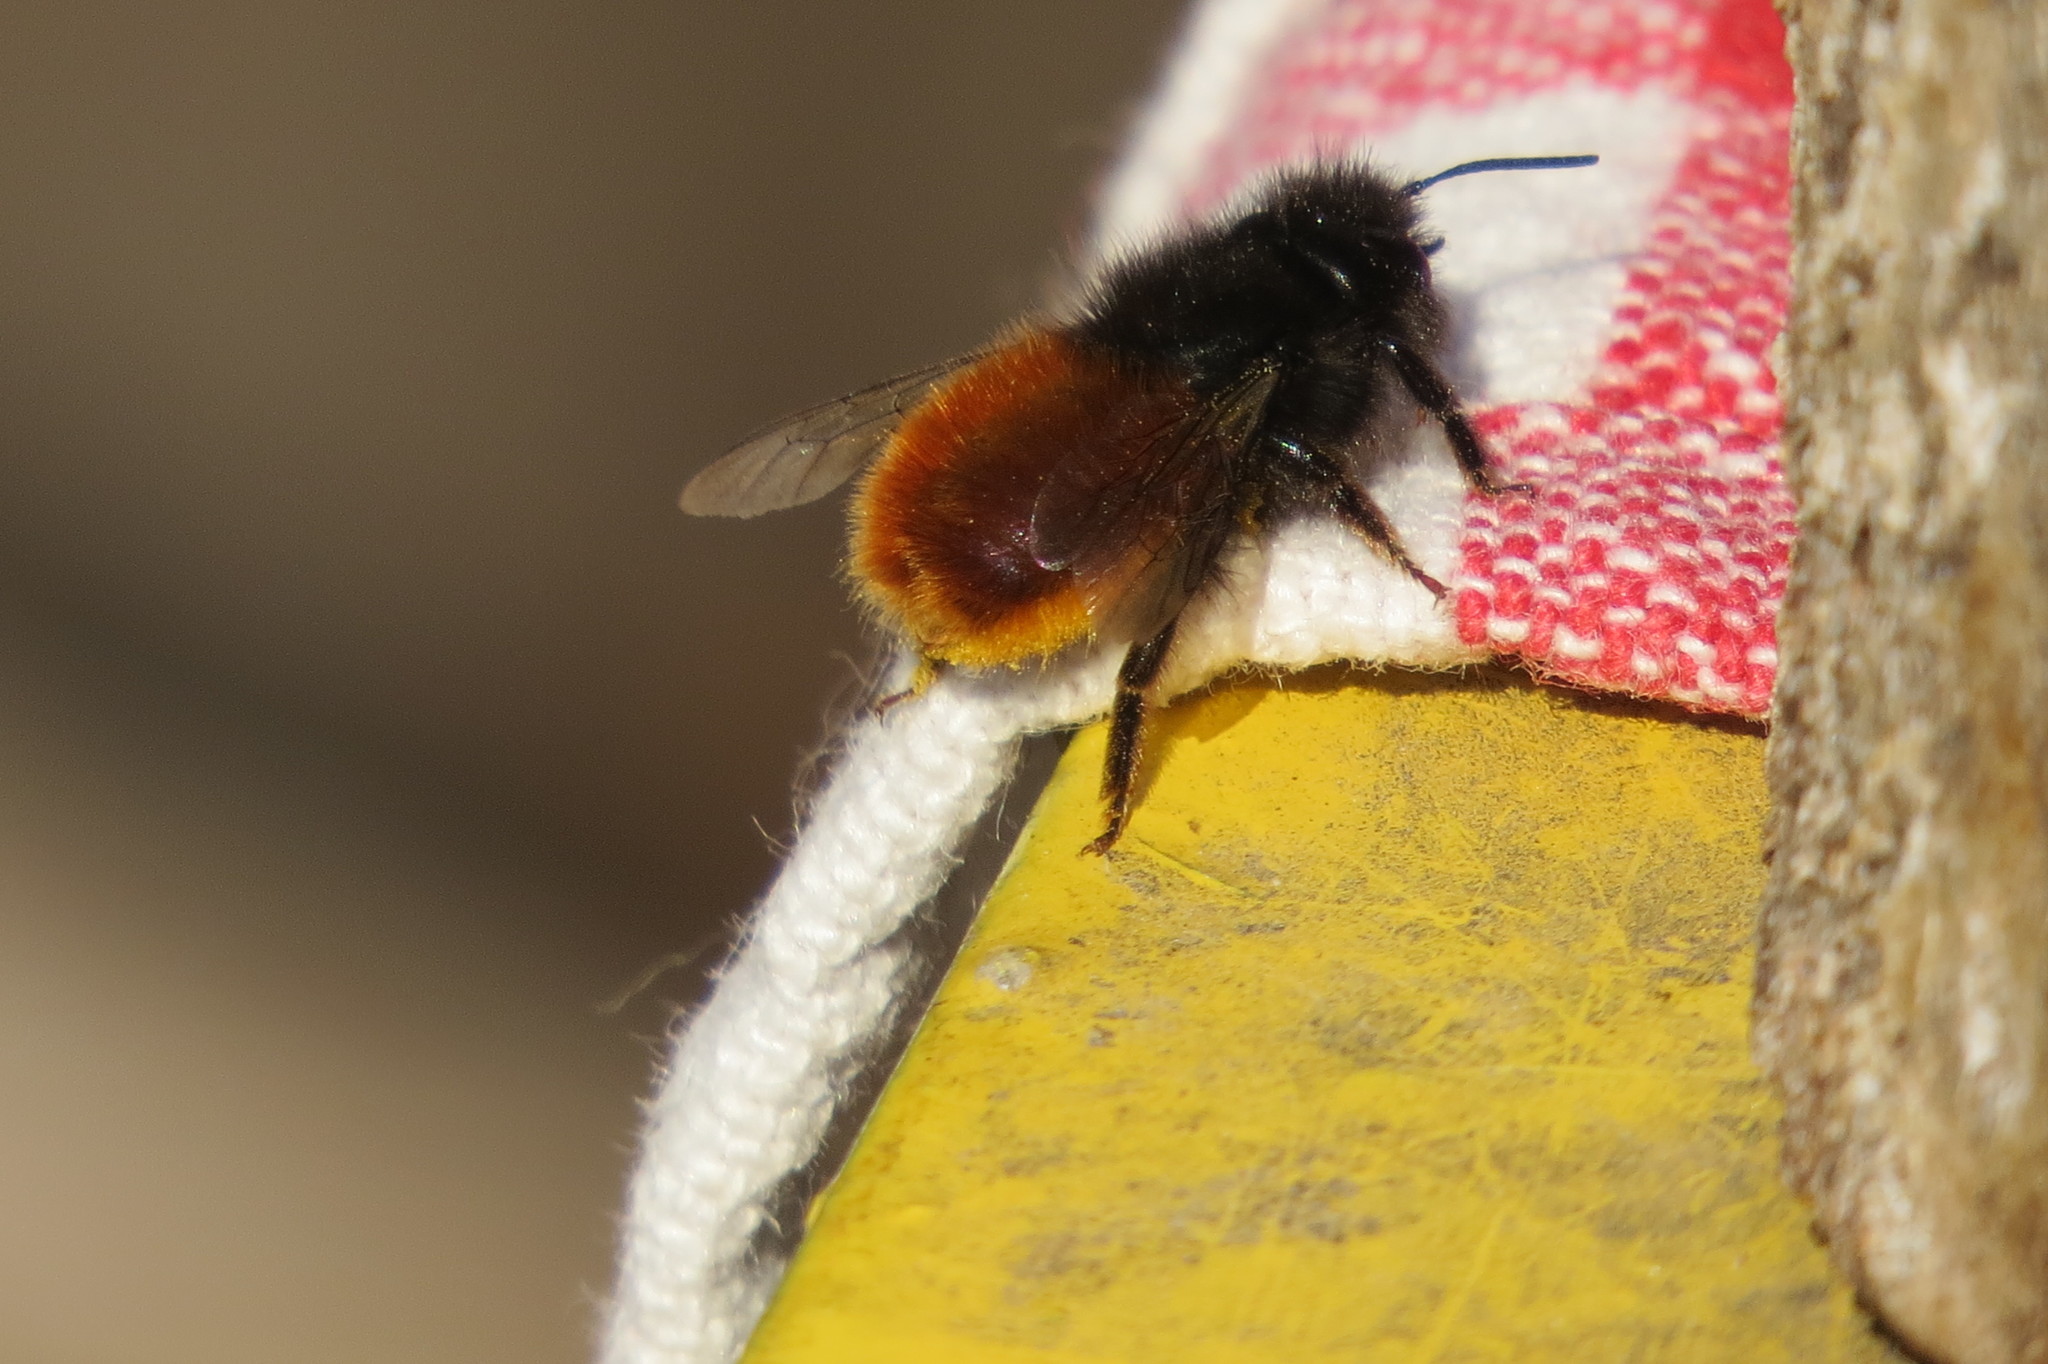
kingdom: Animalia
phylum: Arthropoda
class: Insecta
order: Hymenoptera
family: Megachilidae
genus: Osmia
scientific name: Osmia cornuta
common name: Mason bee
